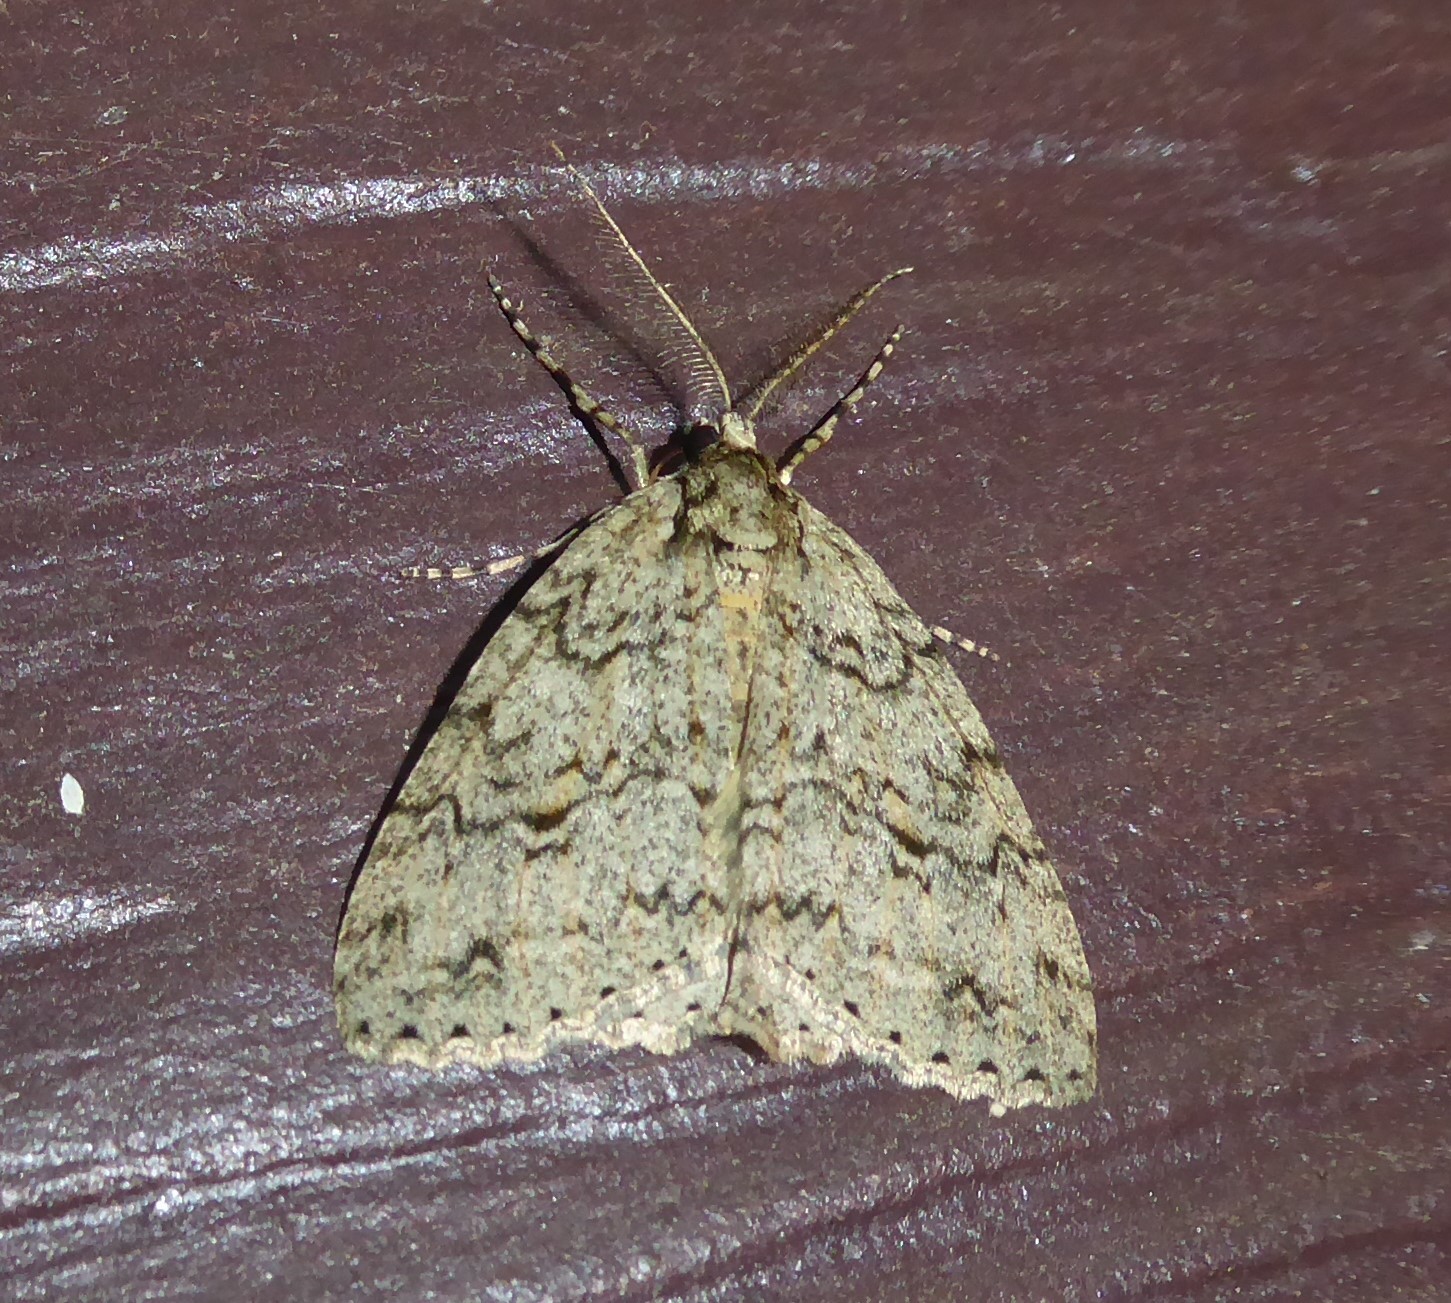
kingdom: Animalia
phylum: Arthropoda
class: Insecta
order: Lepidoptera
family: Geometridae
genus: Pseudocoremia
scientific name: Pseudocoremia rudisata
